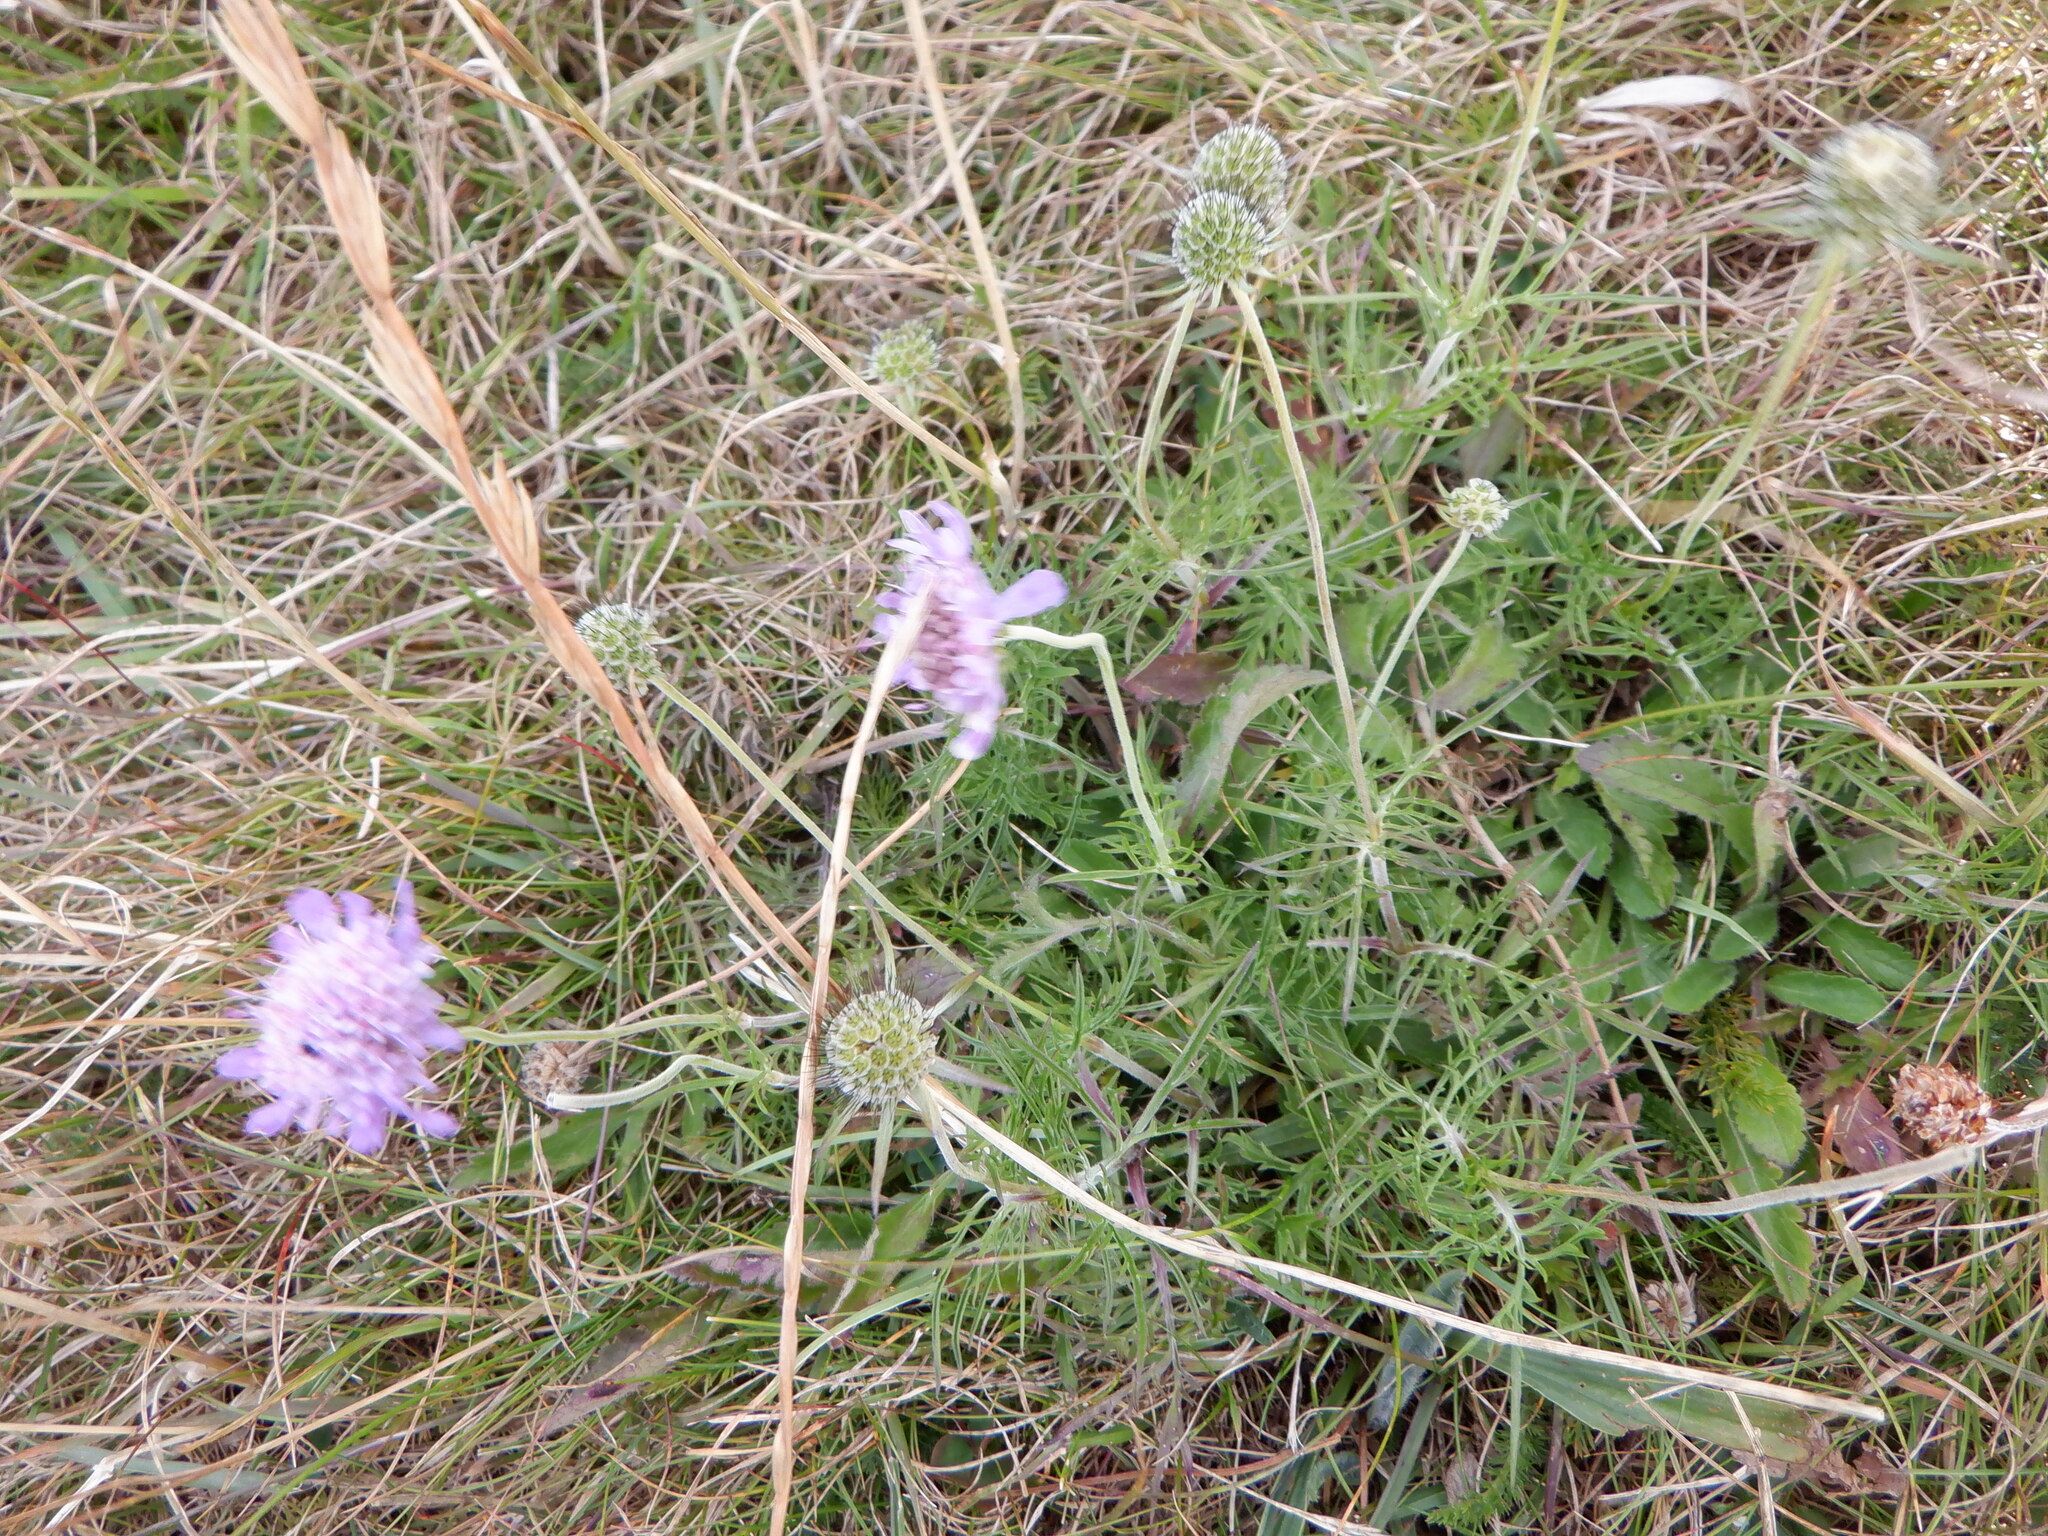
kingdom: Plantae
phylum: Tracheophyta
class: Magnoliopsida
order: Dipsacales
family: Caprifoliaceae
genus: Scabiosa
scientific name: Scabiosa columbaria
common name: Small scabious
